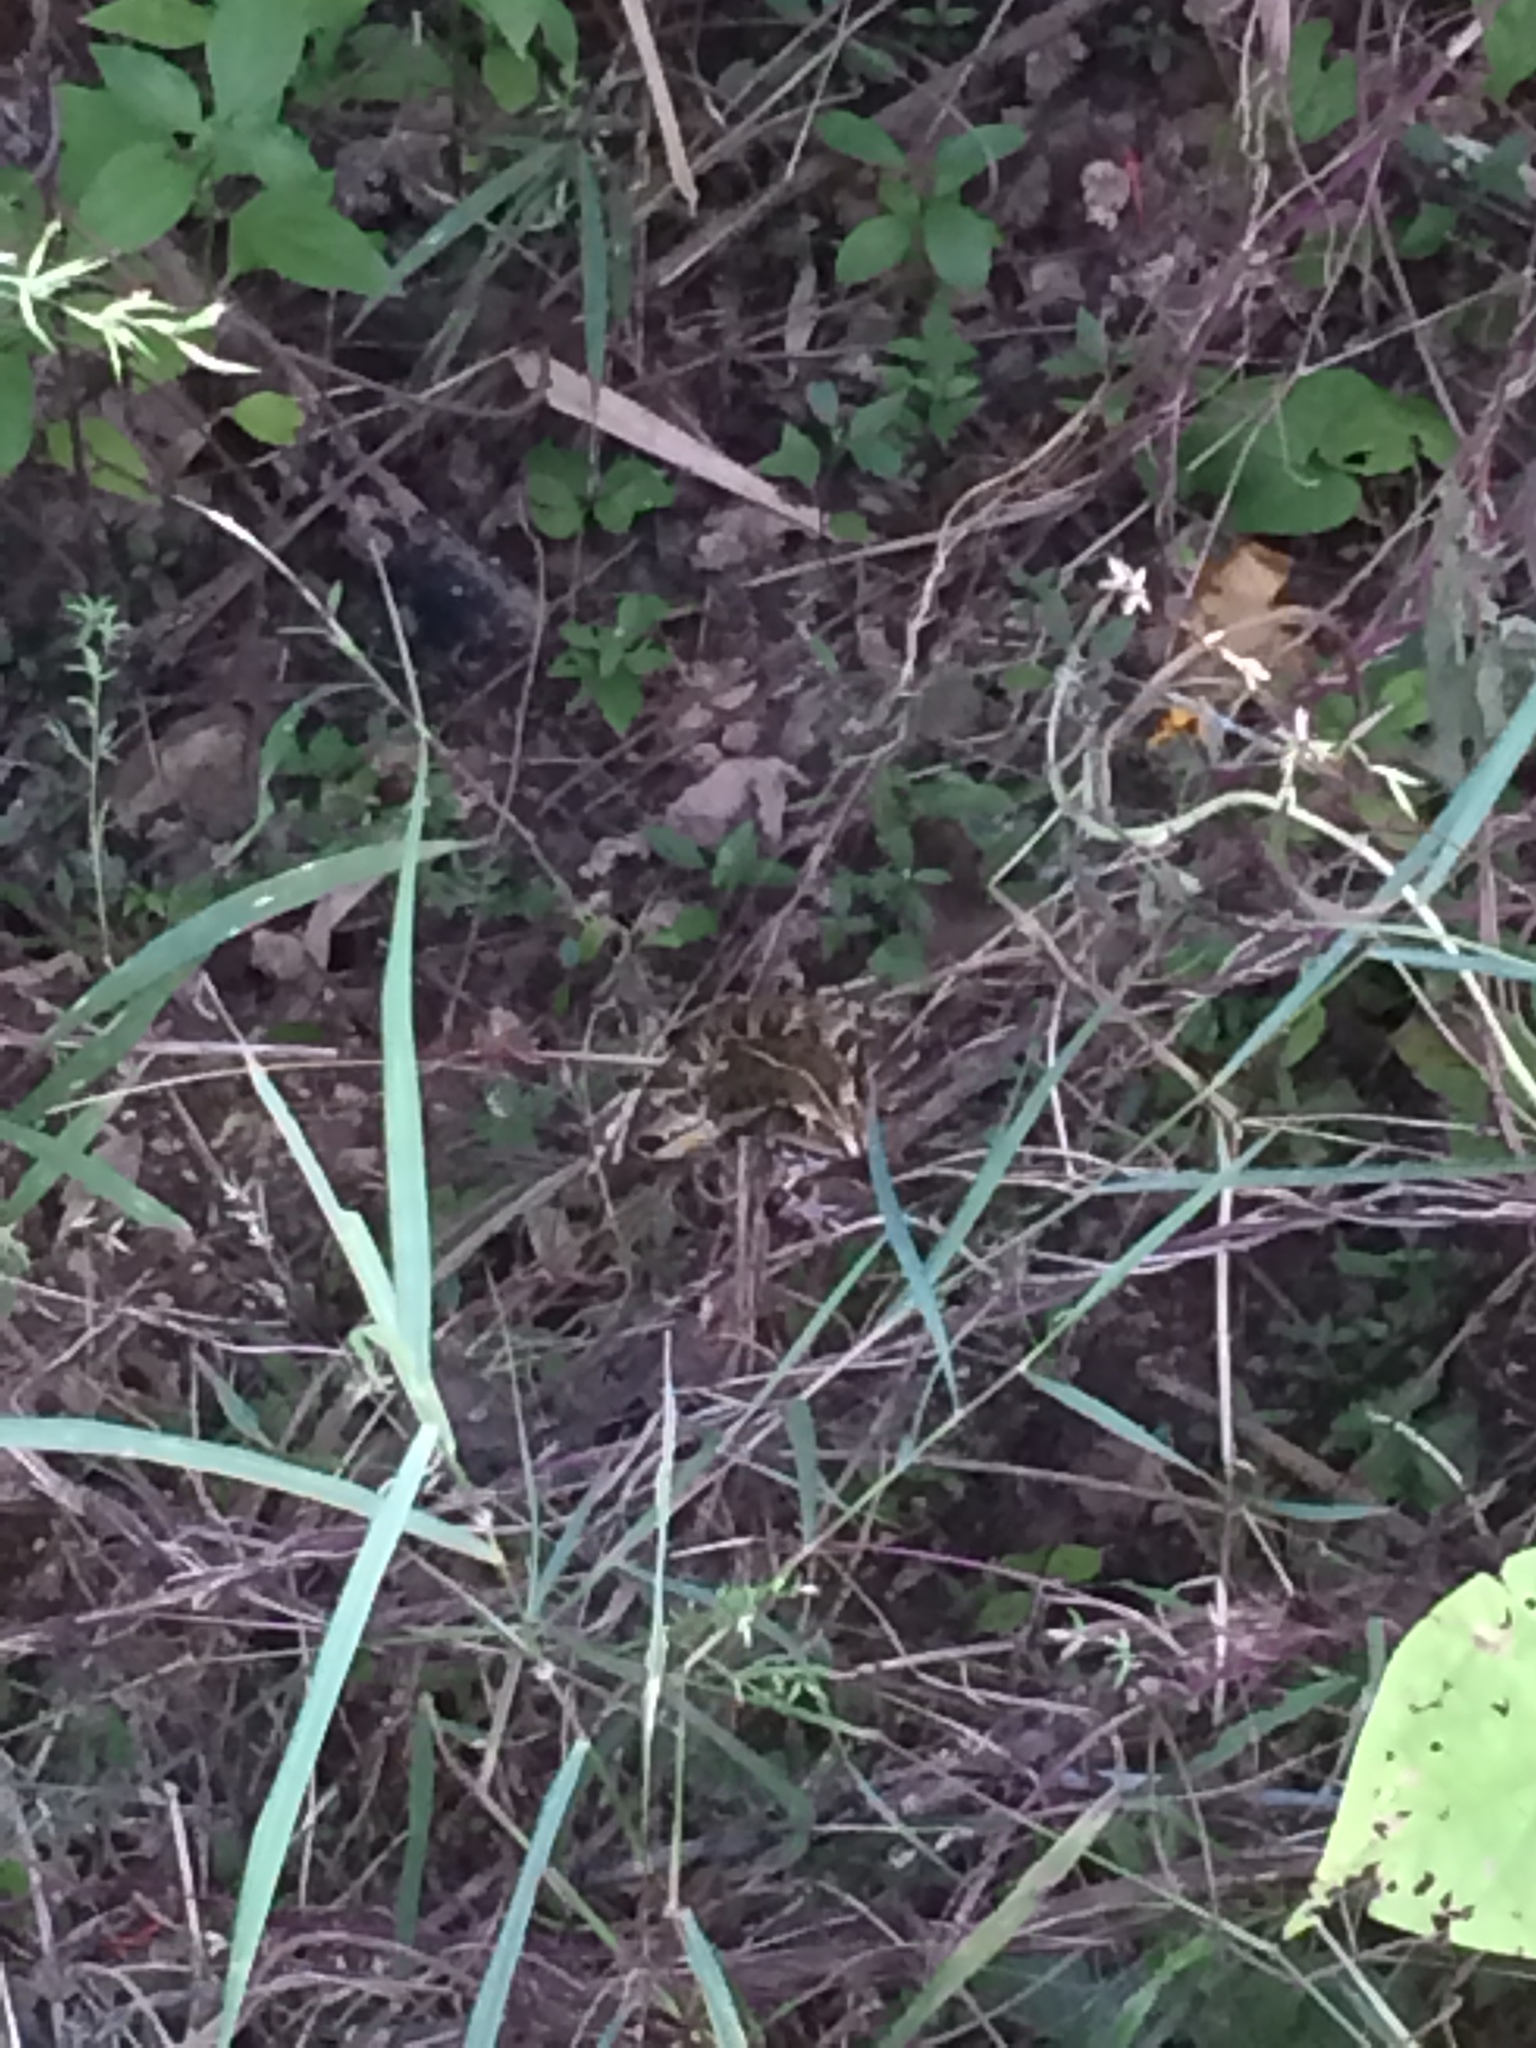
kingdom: Animalia
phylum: Chordata
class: Amphibia
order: Anura
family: Dicroglossidae
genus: Hoplobatrachus
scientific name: Hoplobatrachus tigerinus
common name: Indian bullfrog
